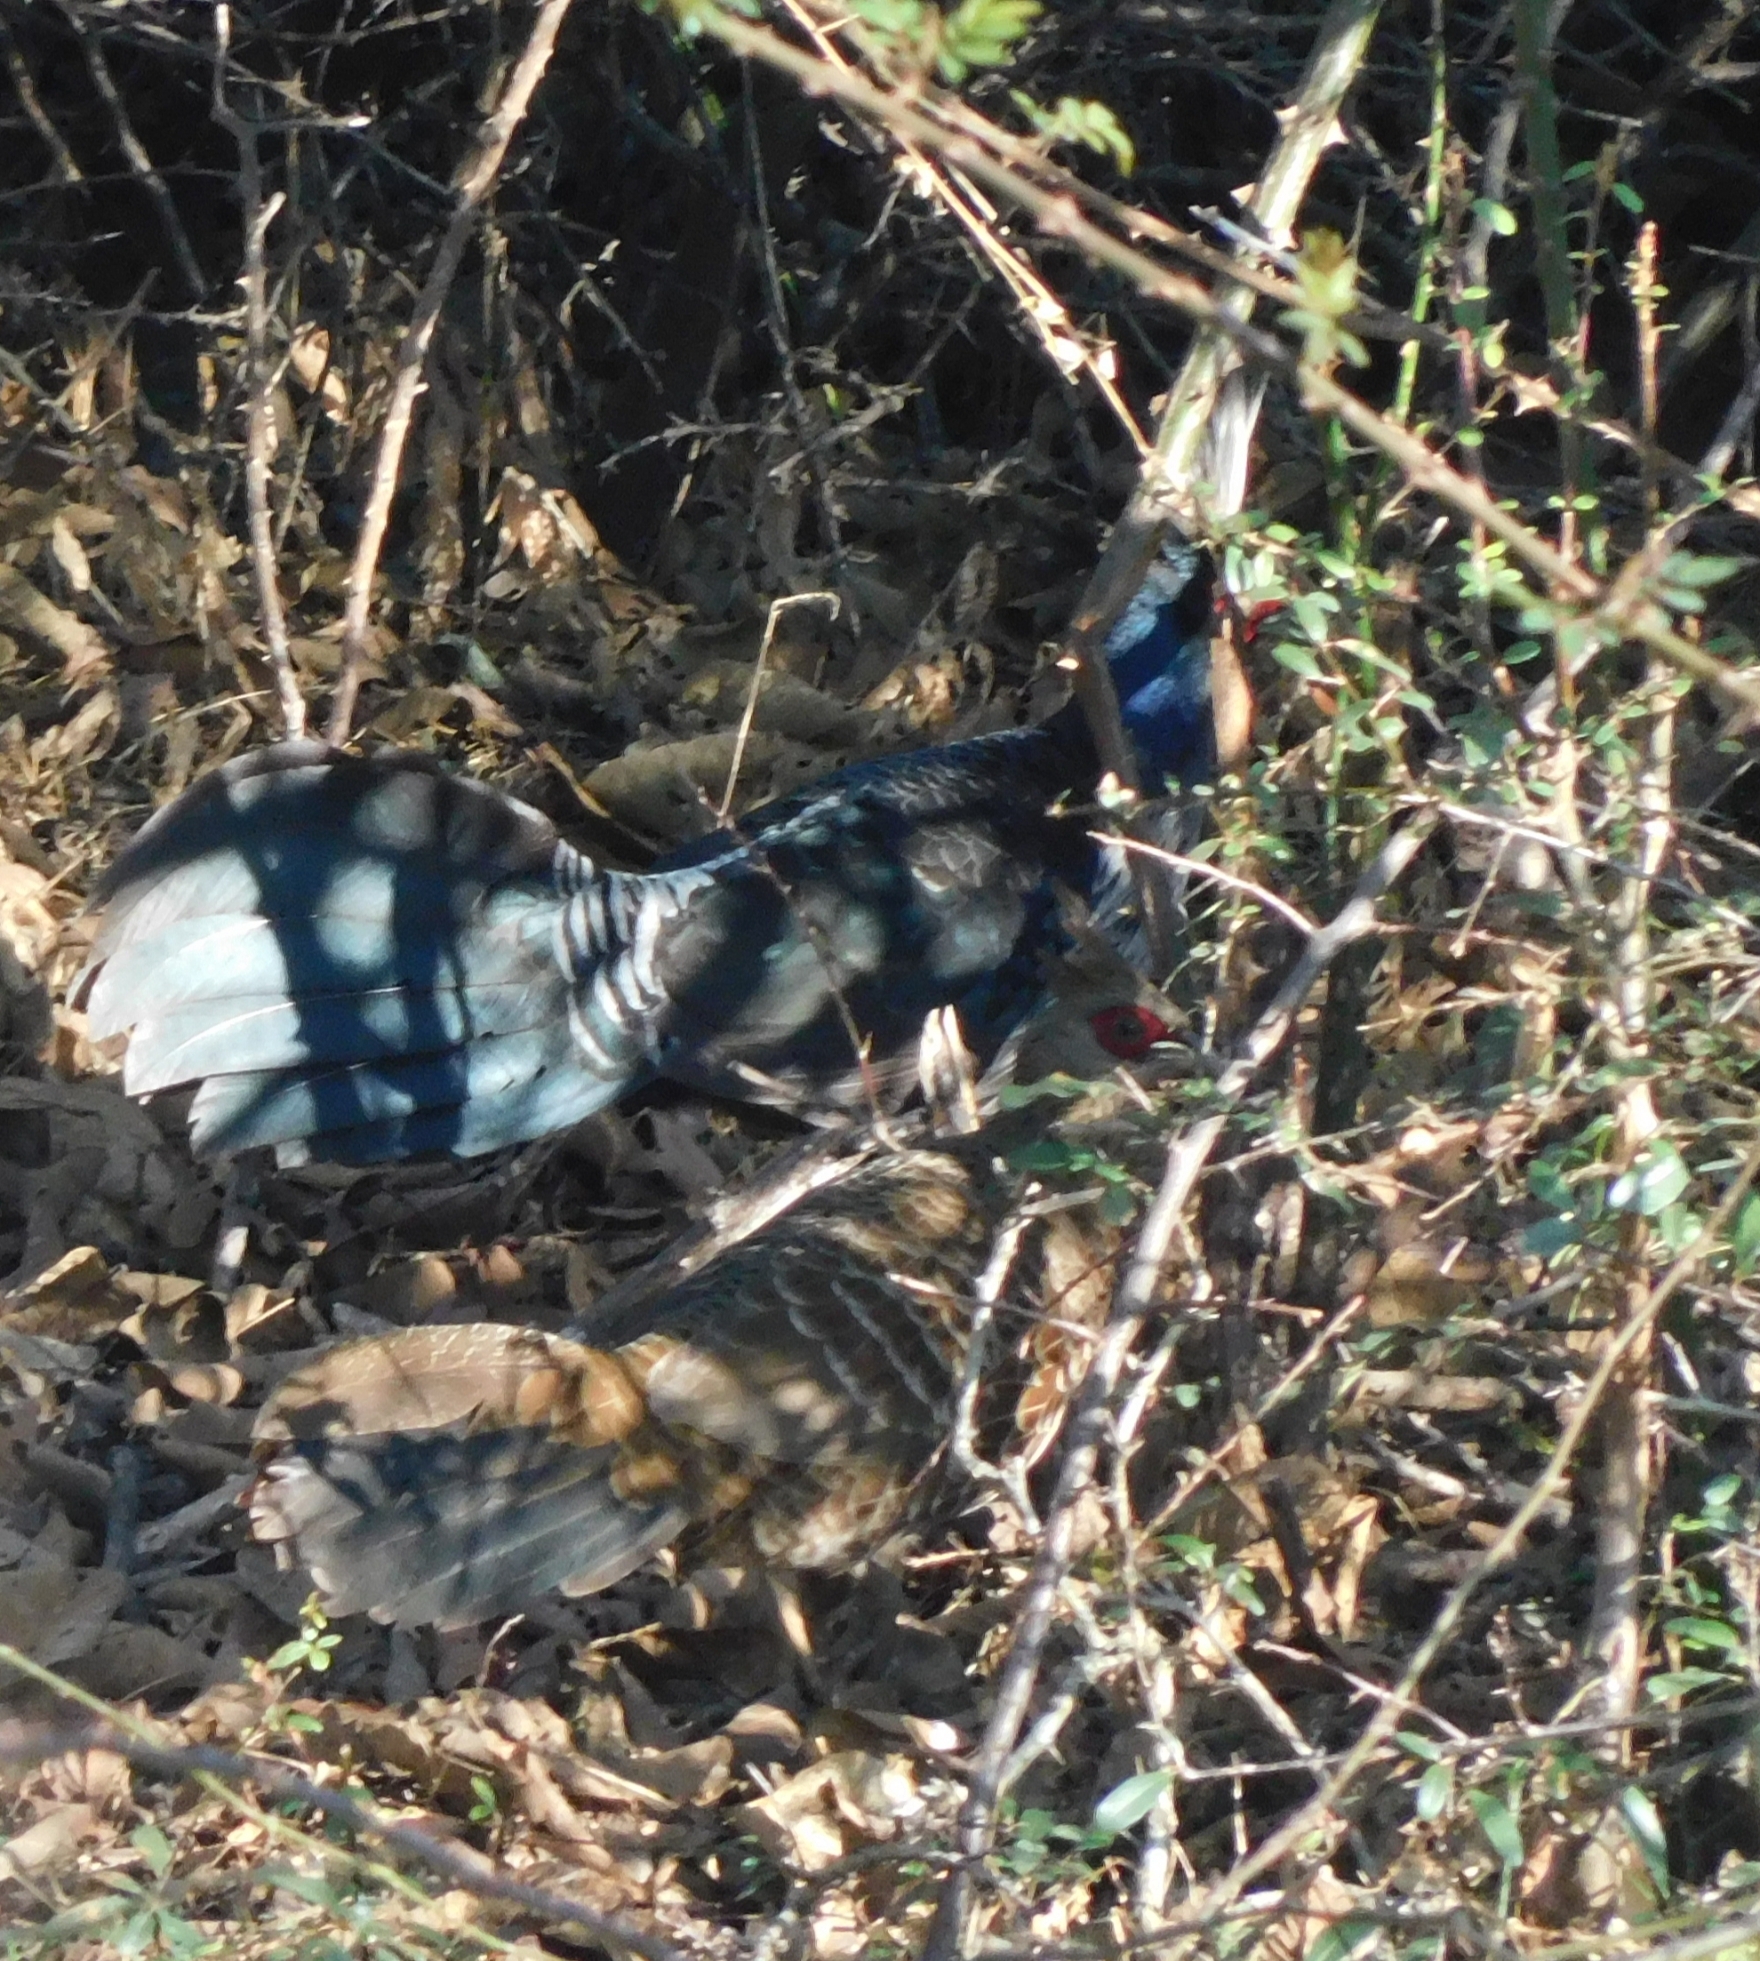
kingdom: Animalia
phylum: Chordata
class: Aves
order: Galliformes
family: Phasianidae
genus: Lophura
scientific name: Lophura leucomelanos
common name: Kalij pheasant
